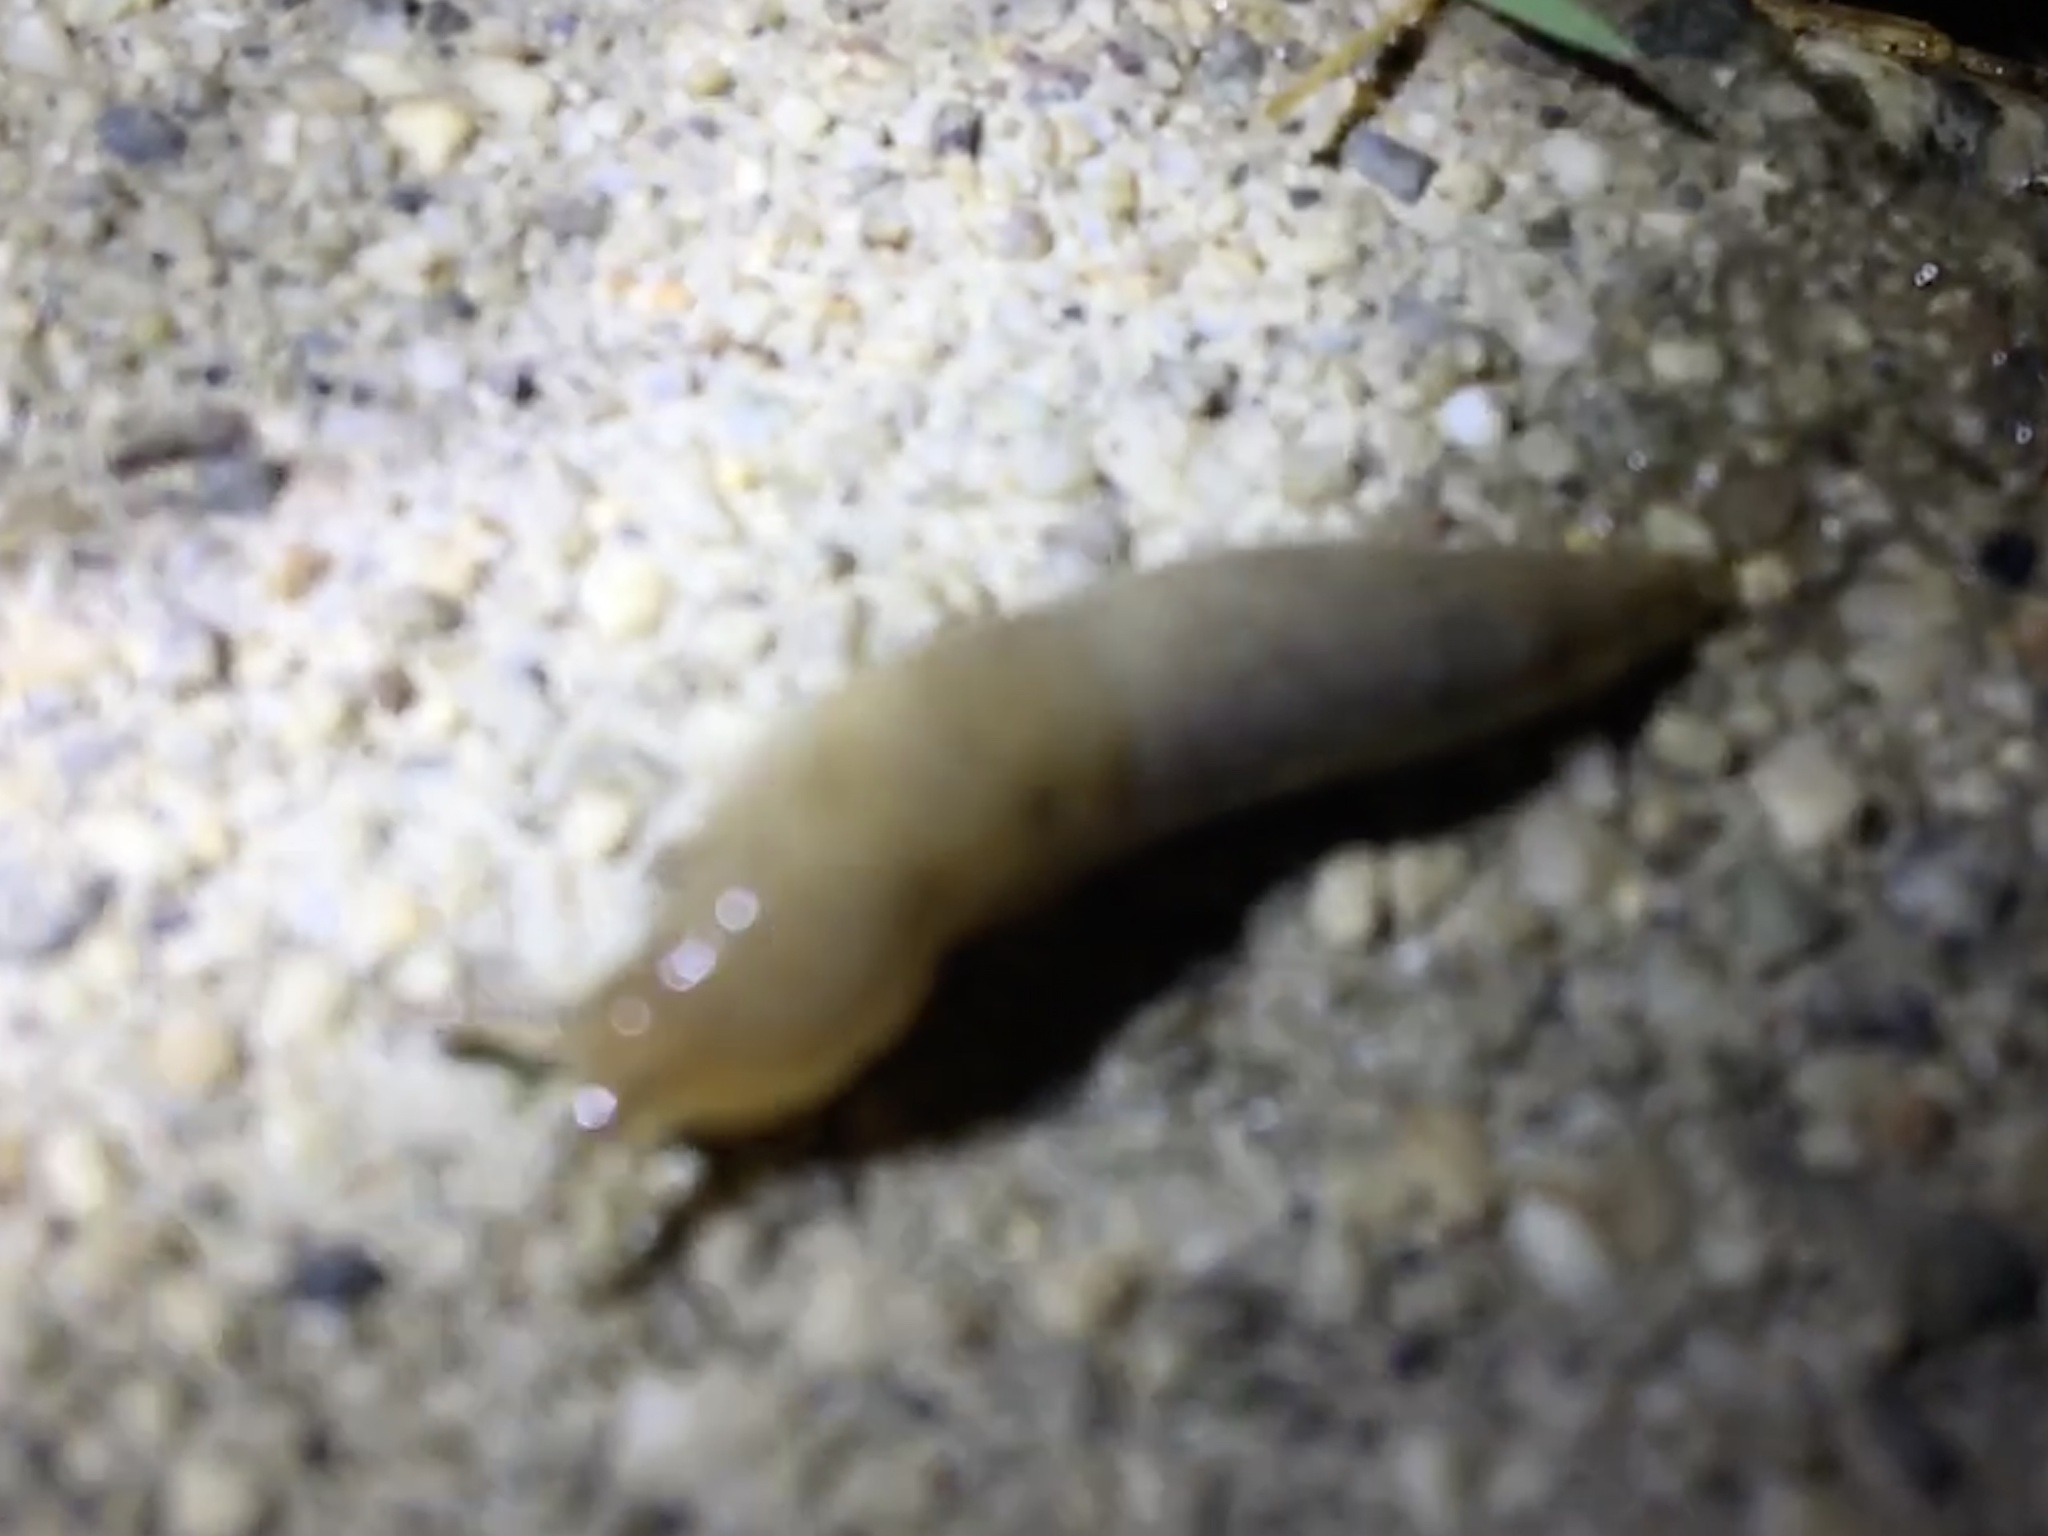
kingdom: Animalia
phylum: Mollusca
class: Gastropoda
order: Stylommatophora
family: Agriolimacidae
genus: Deroceras
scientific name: Deroceras reticulatum
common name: Gray field slug
